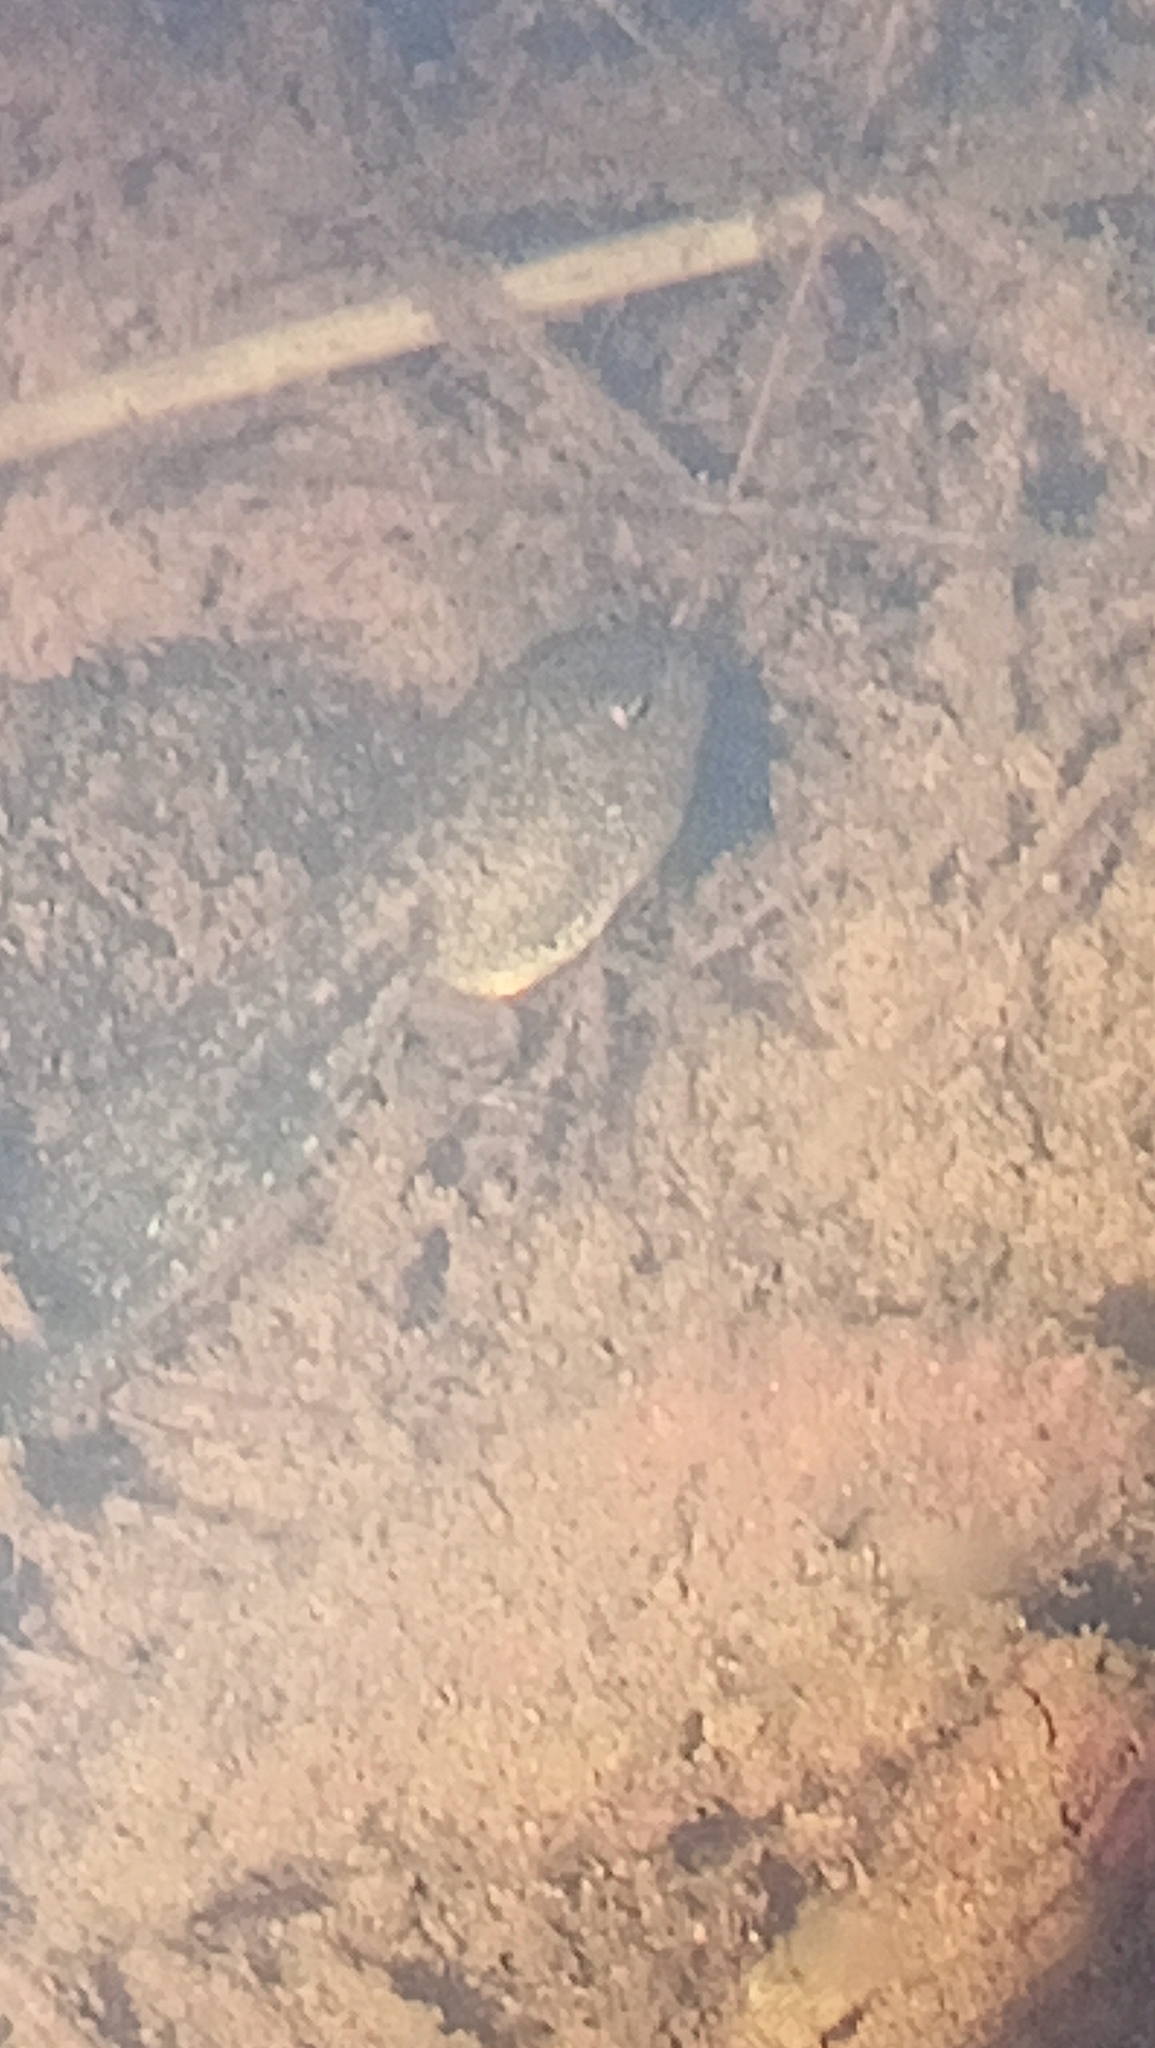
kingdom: Animalia
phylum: Chordata
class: Amphibia
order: Anura
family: Ranidae
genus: Rana
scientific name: Rana temporaria
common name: Common frog
